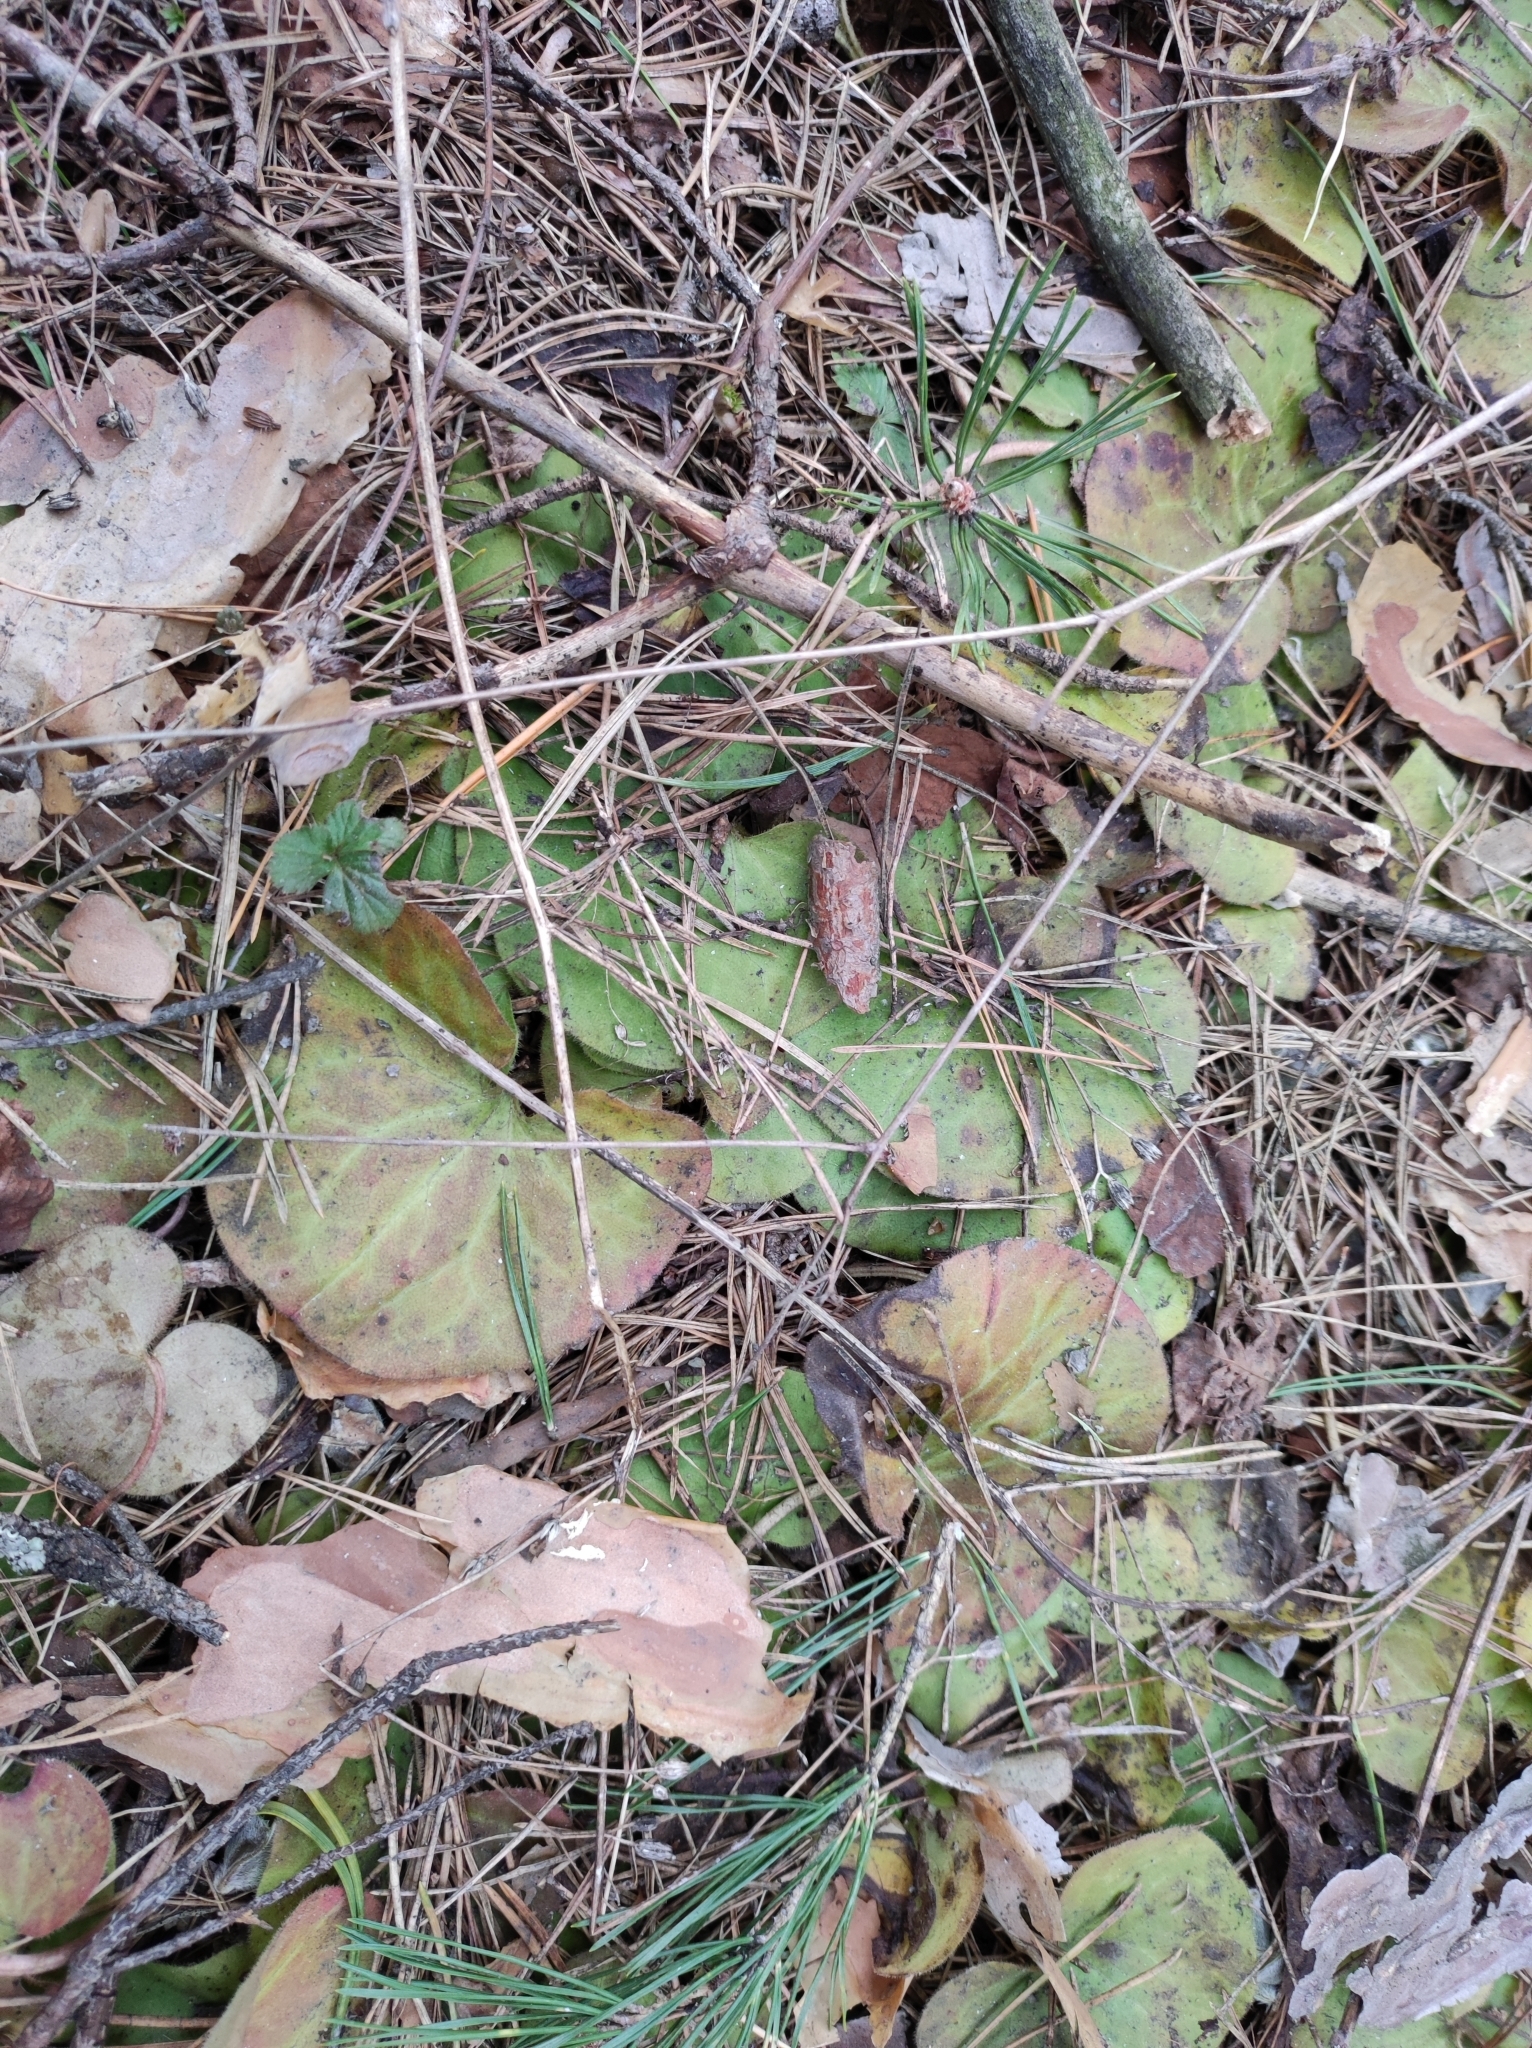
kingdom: Plantae
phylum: Tracheophyta
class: Magnoliopsida
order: Piperales
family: Aristolochiaceae
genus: Asarum
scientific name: Asarum europaeum
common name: Asarabacca
